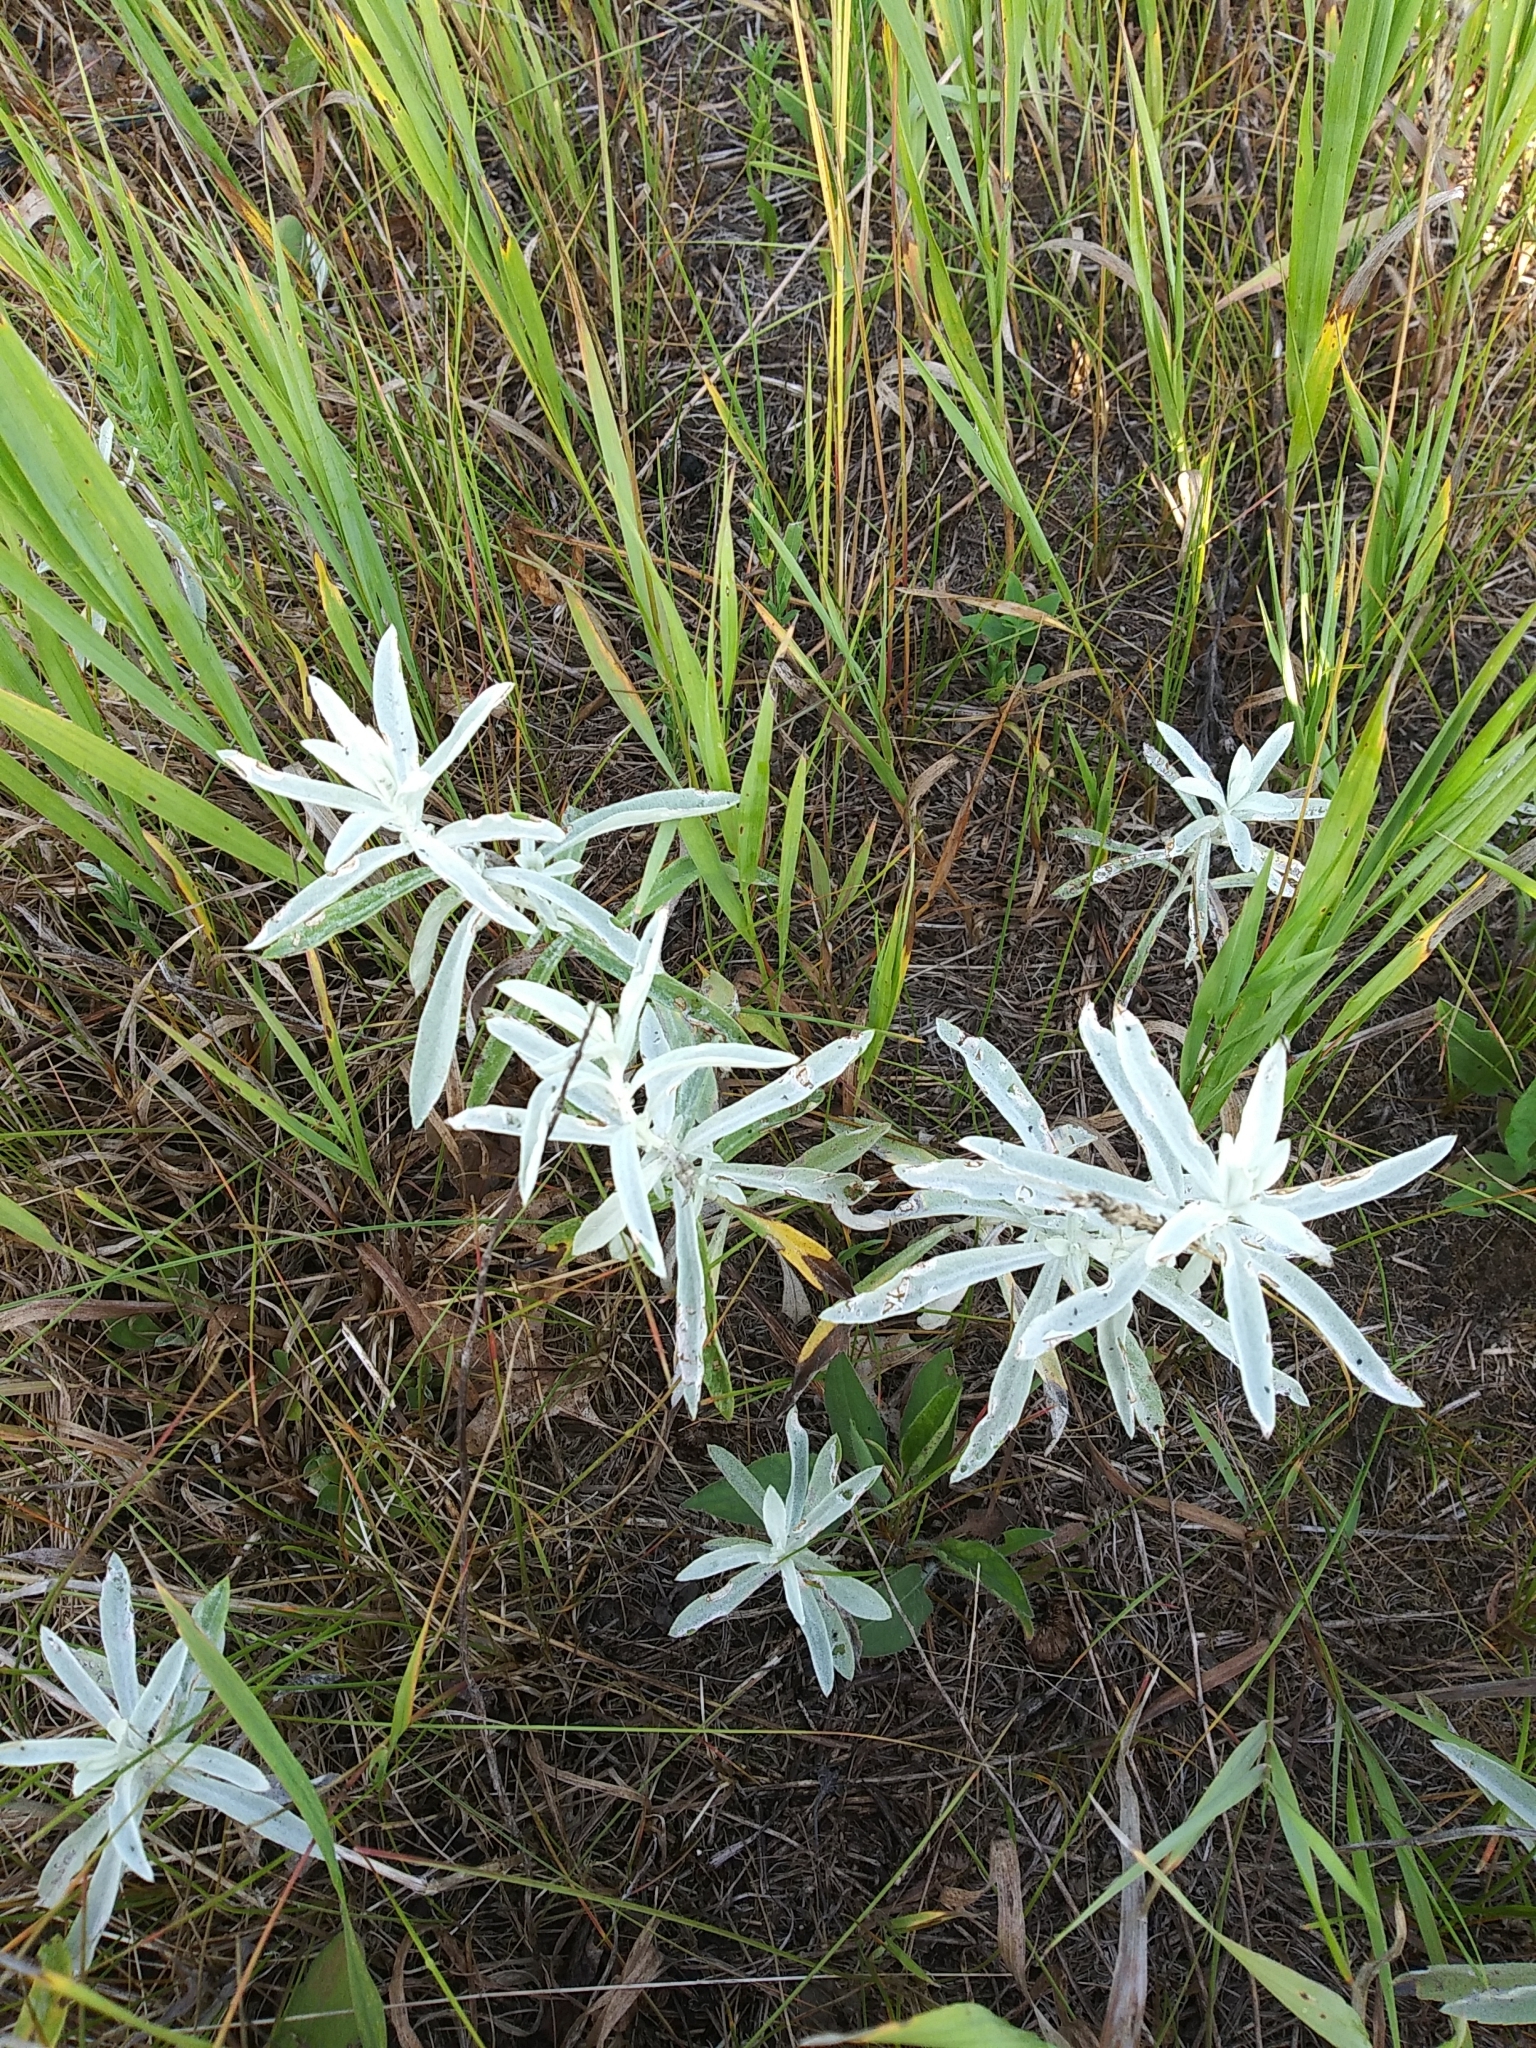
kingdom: Plantae
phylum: Tracheophyta
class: Magnoliopsida
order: Asterales
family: Asteraceae
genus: Artemisia
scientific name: Artemisia ludoviciana
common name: Western mugwort
